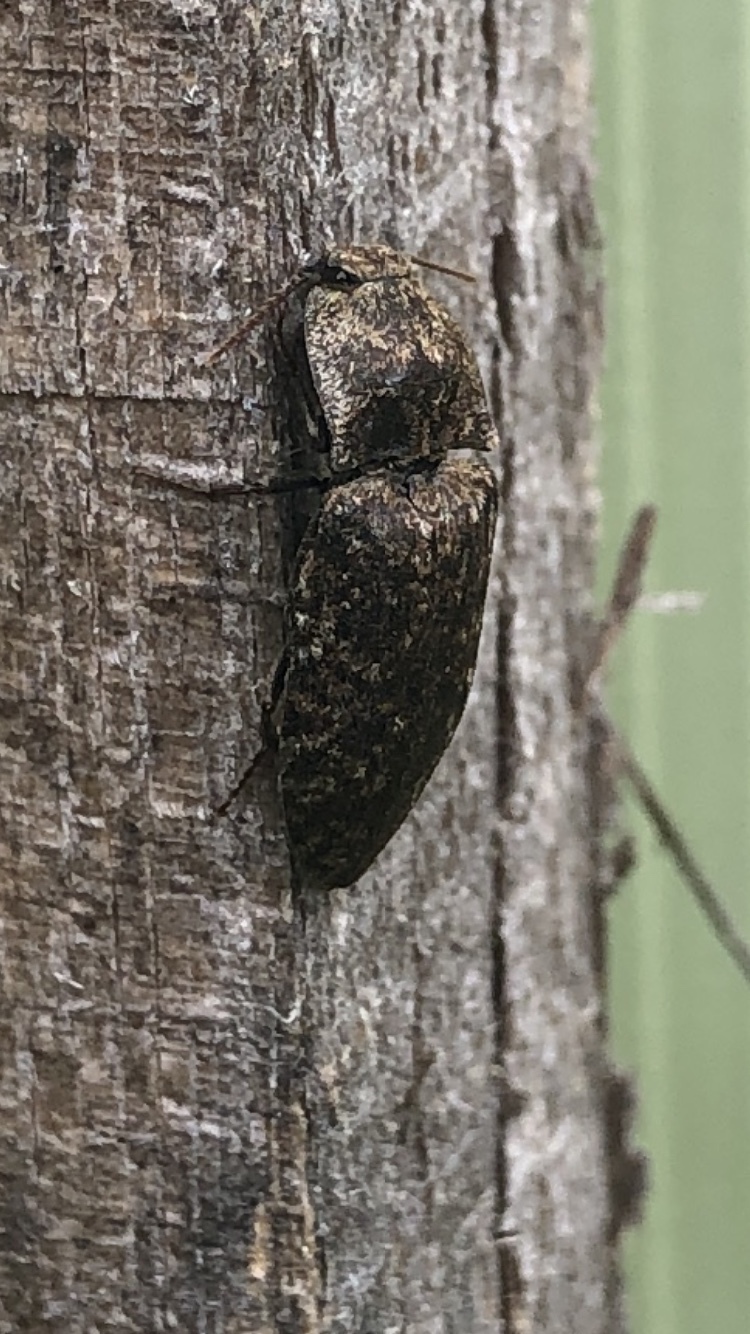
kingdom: Animalia
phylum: Arthropoda
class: Insecta
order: Coleoptera
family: Elateridae
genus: Agrypnus
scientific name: Agrypnus murinus
